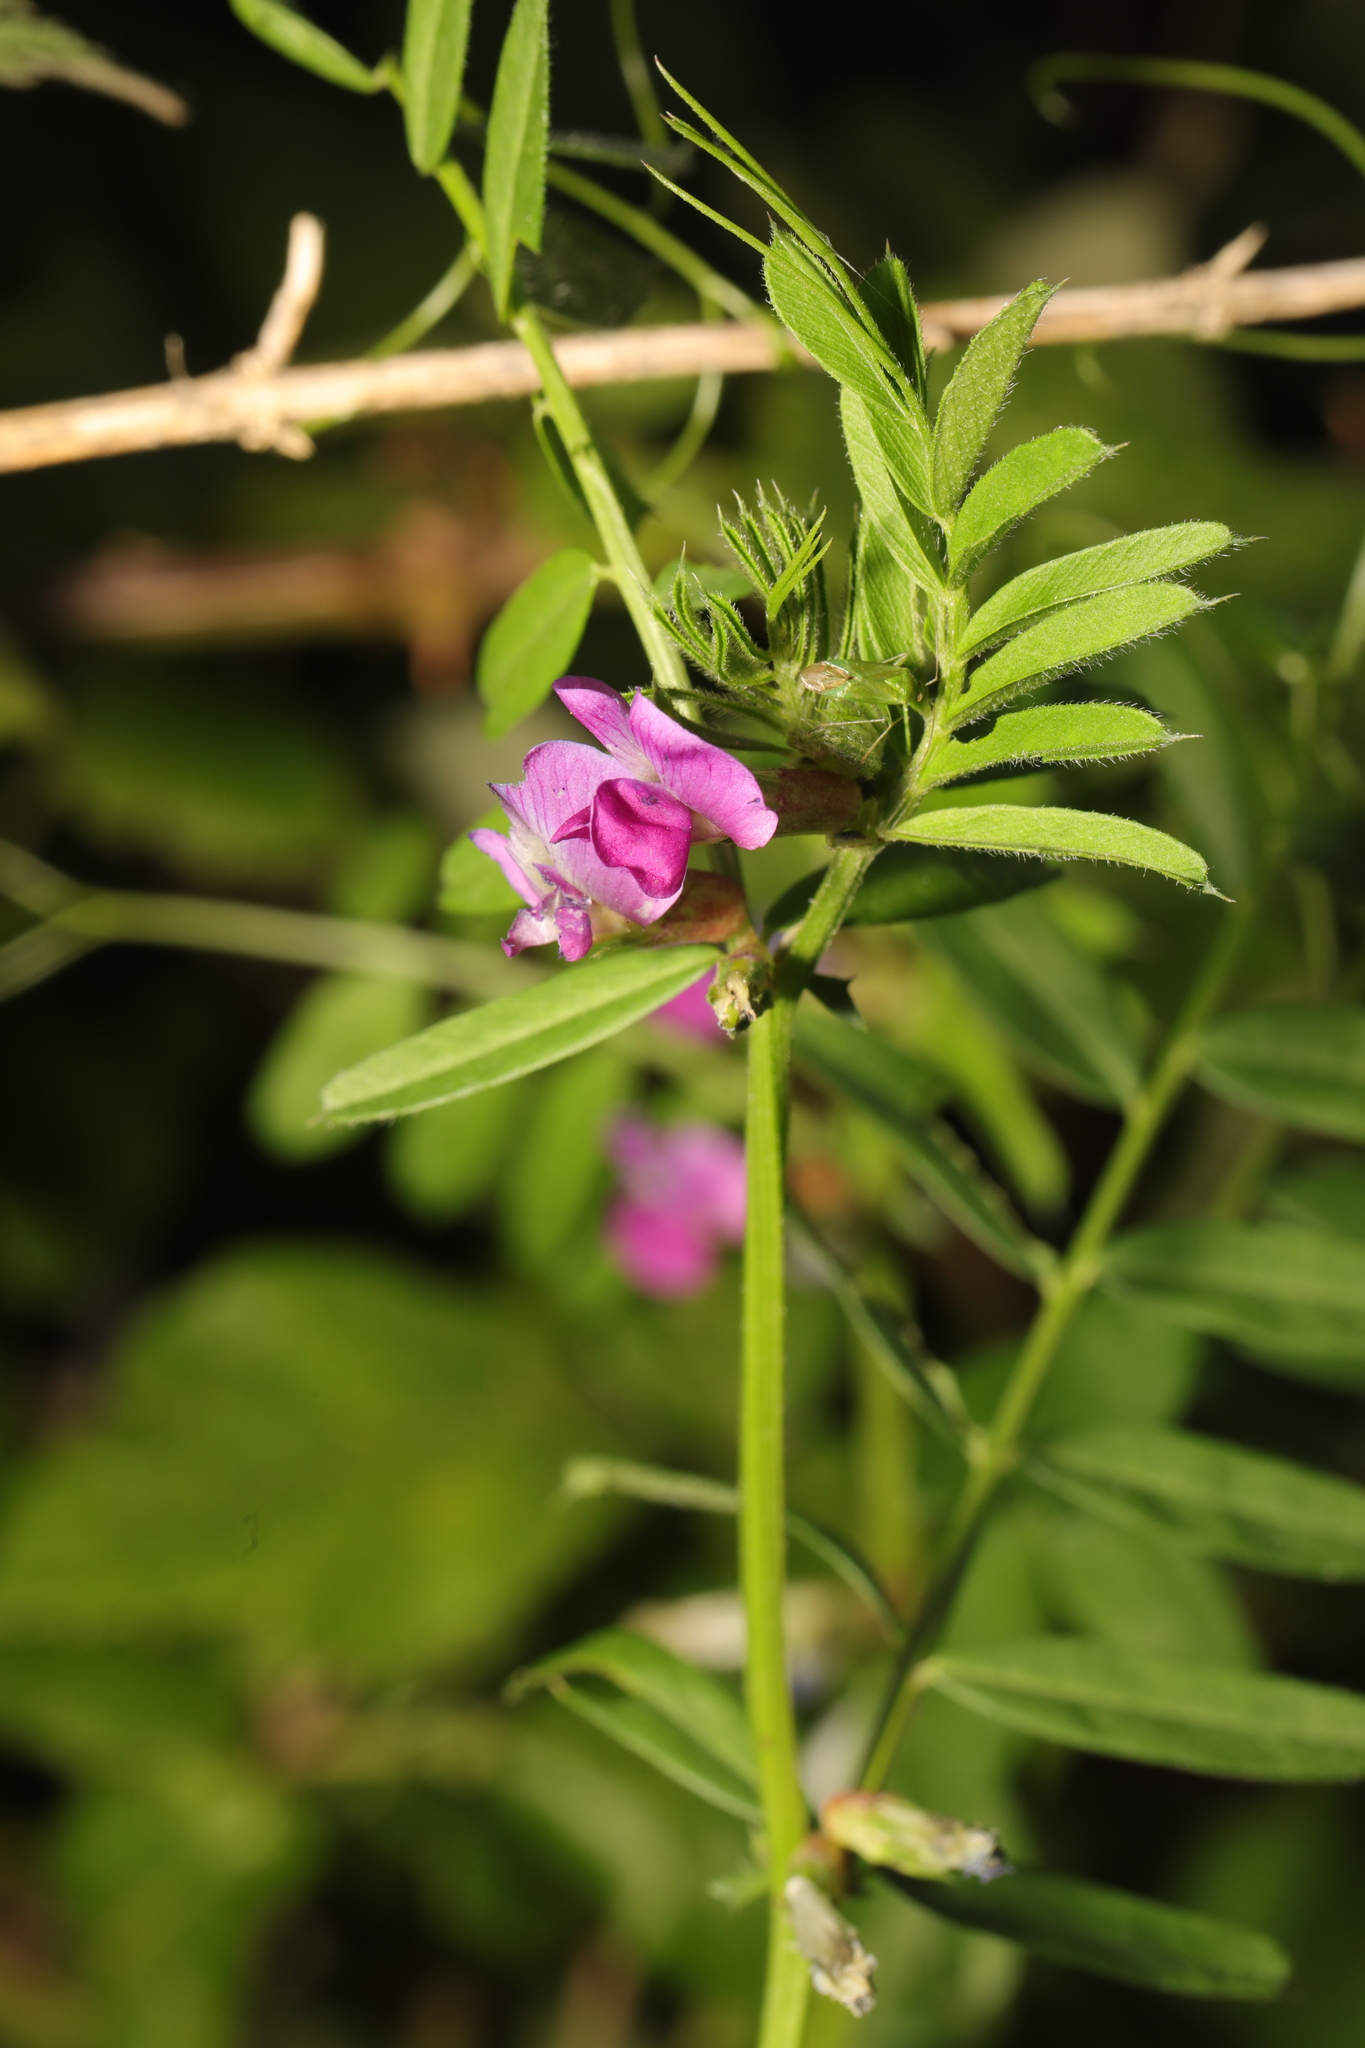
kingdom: Plantae
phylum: Tracheophyta
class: Magnoliopsida
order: Fabales
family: Fabaceae
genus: Vicia
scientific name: Vicia sativa
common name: Garden vetch
